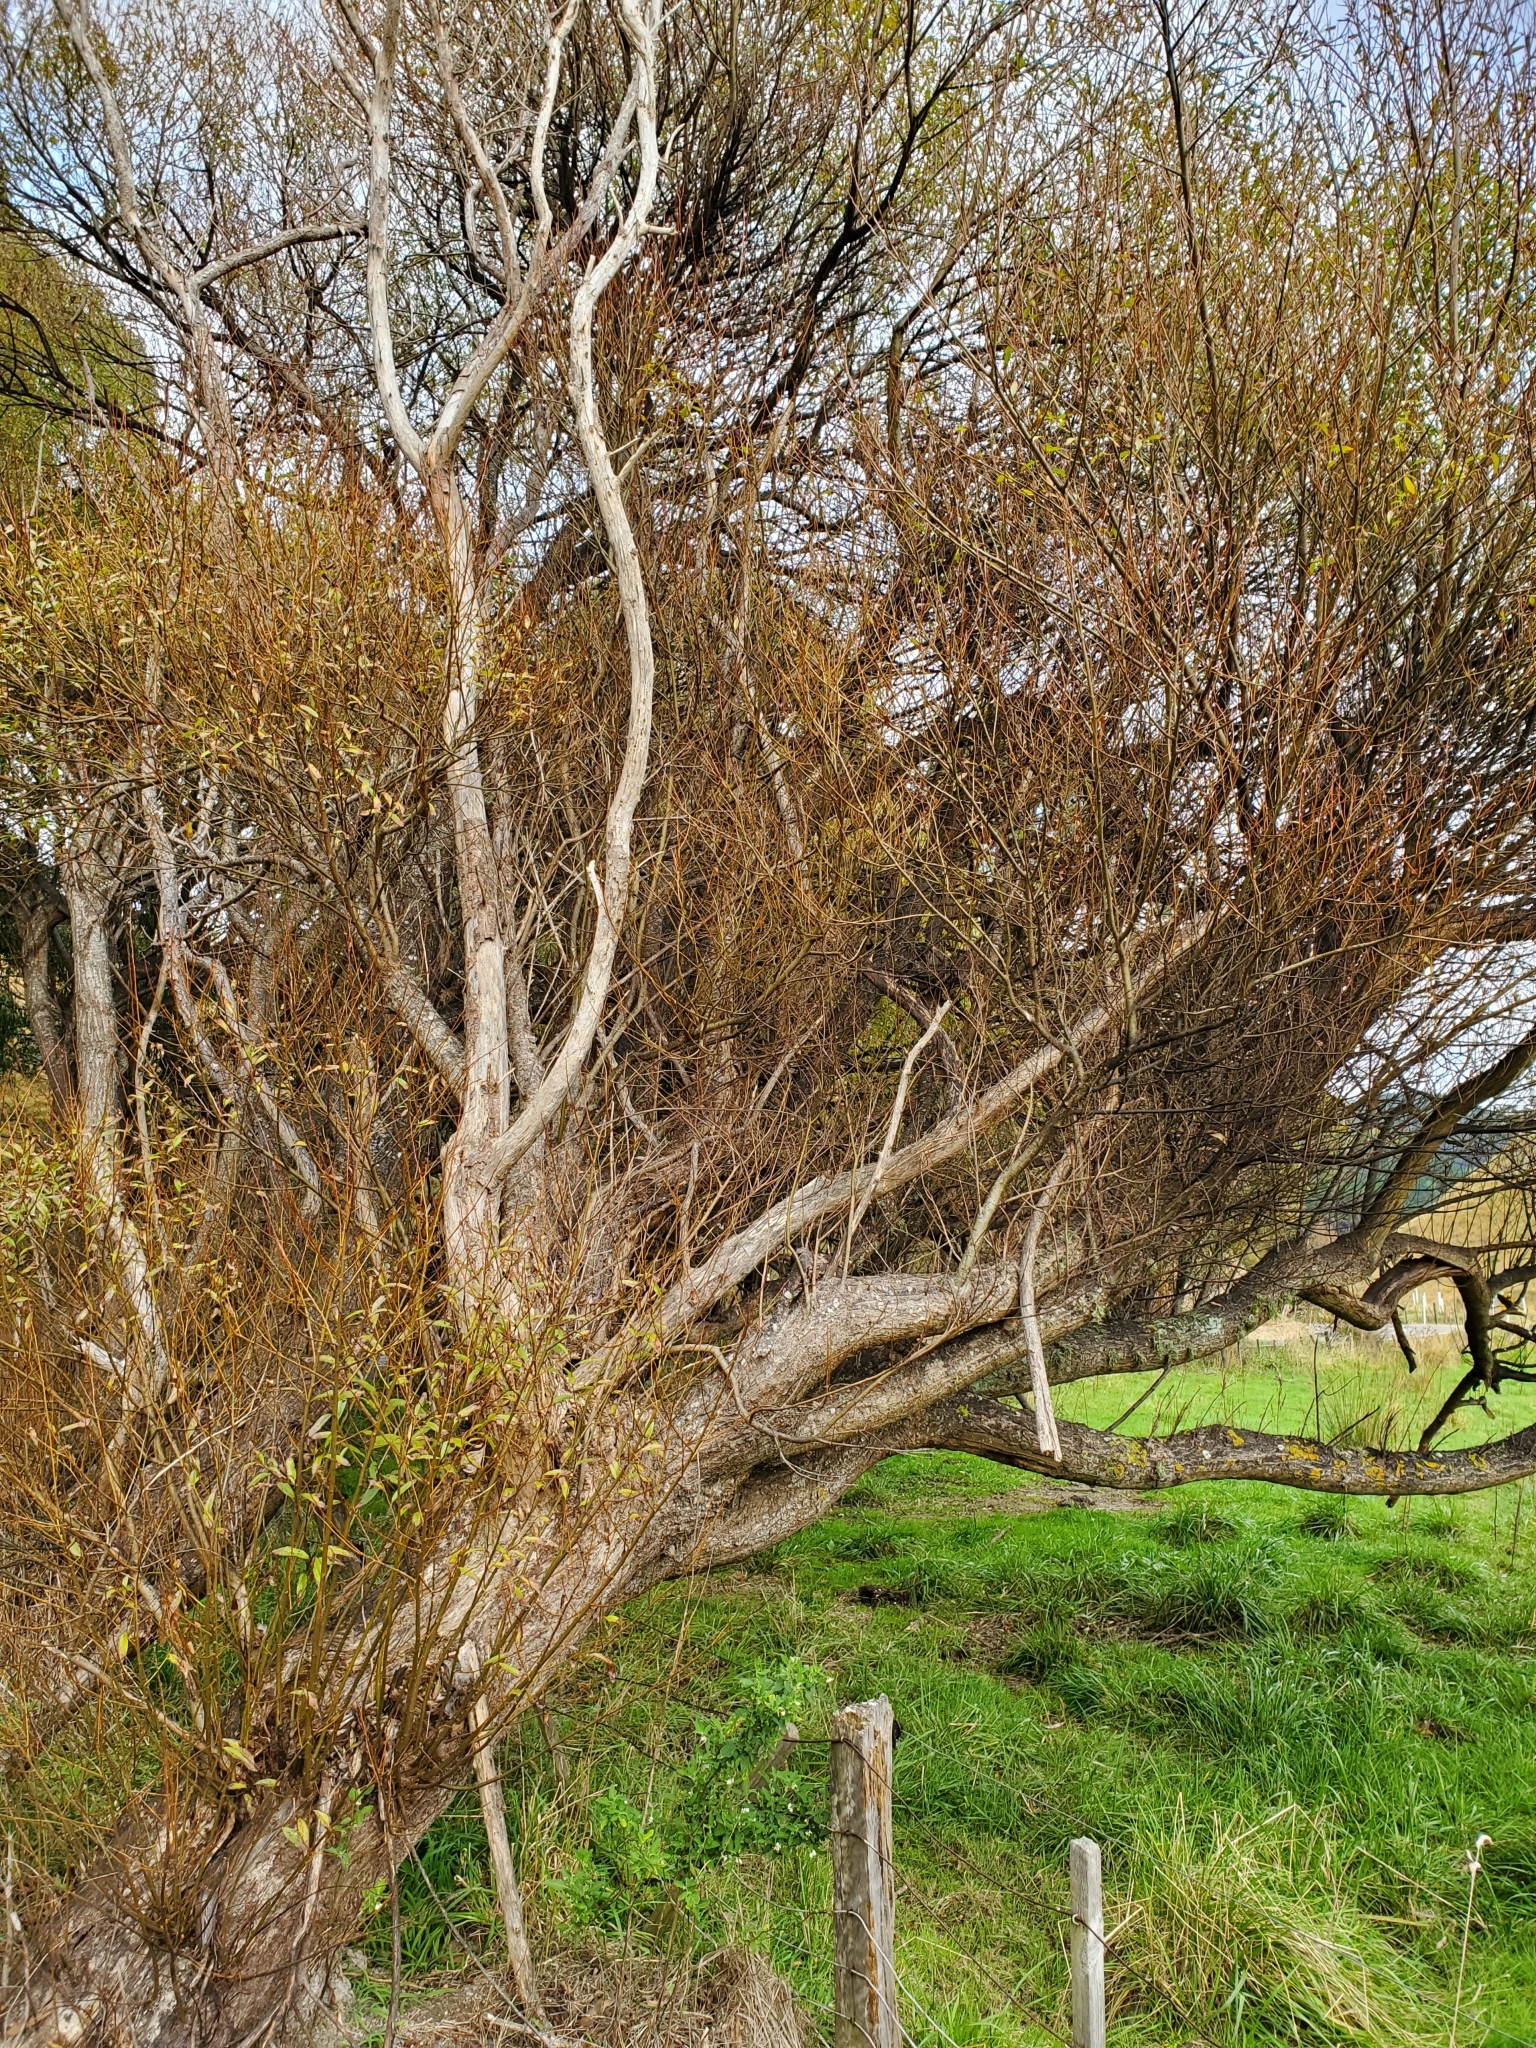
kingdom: Plantae
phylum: Tracheophyta
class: Magnoliopsida
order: Malpighiales
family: Salicaceae
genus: Salix
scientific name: Salix fragilis
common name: Crack willow
